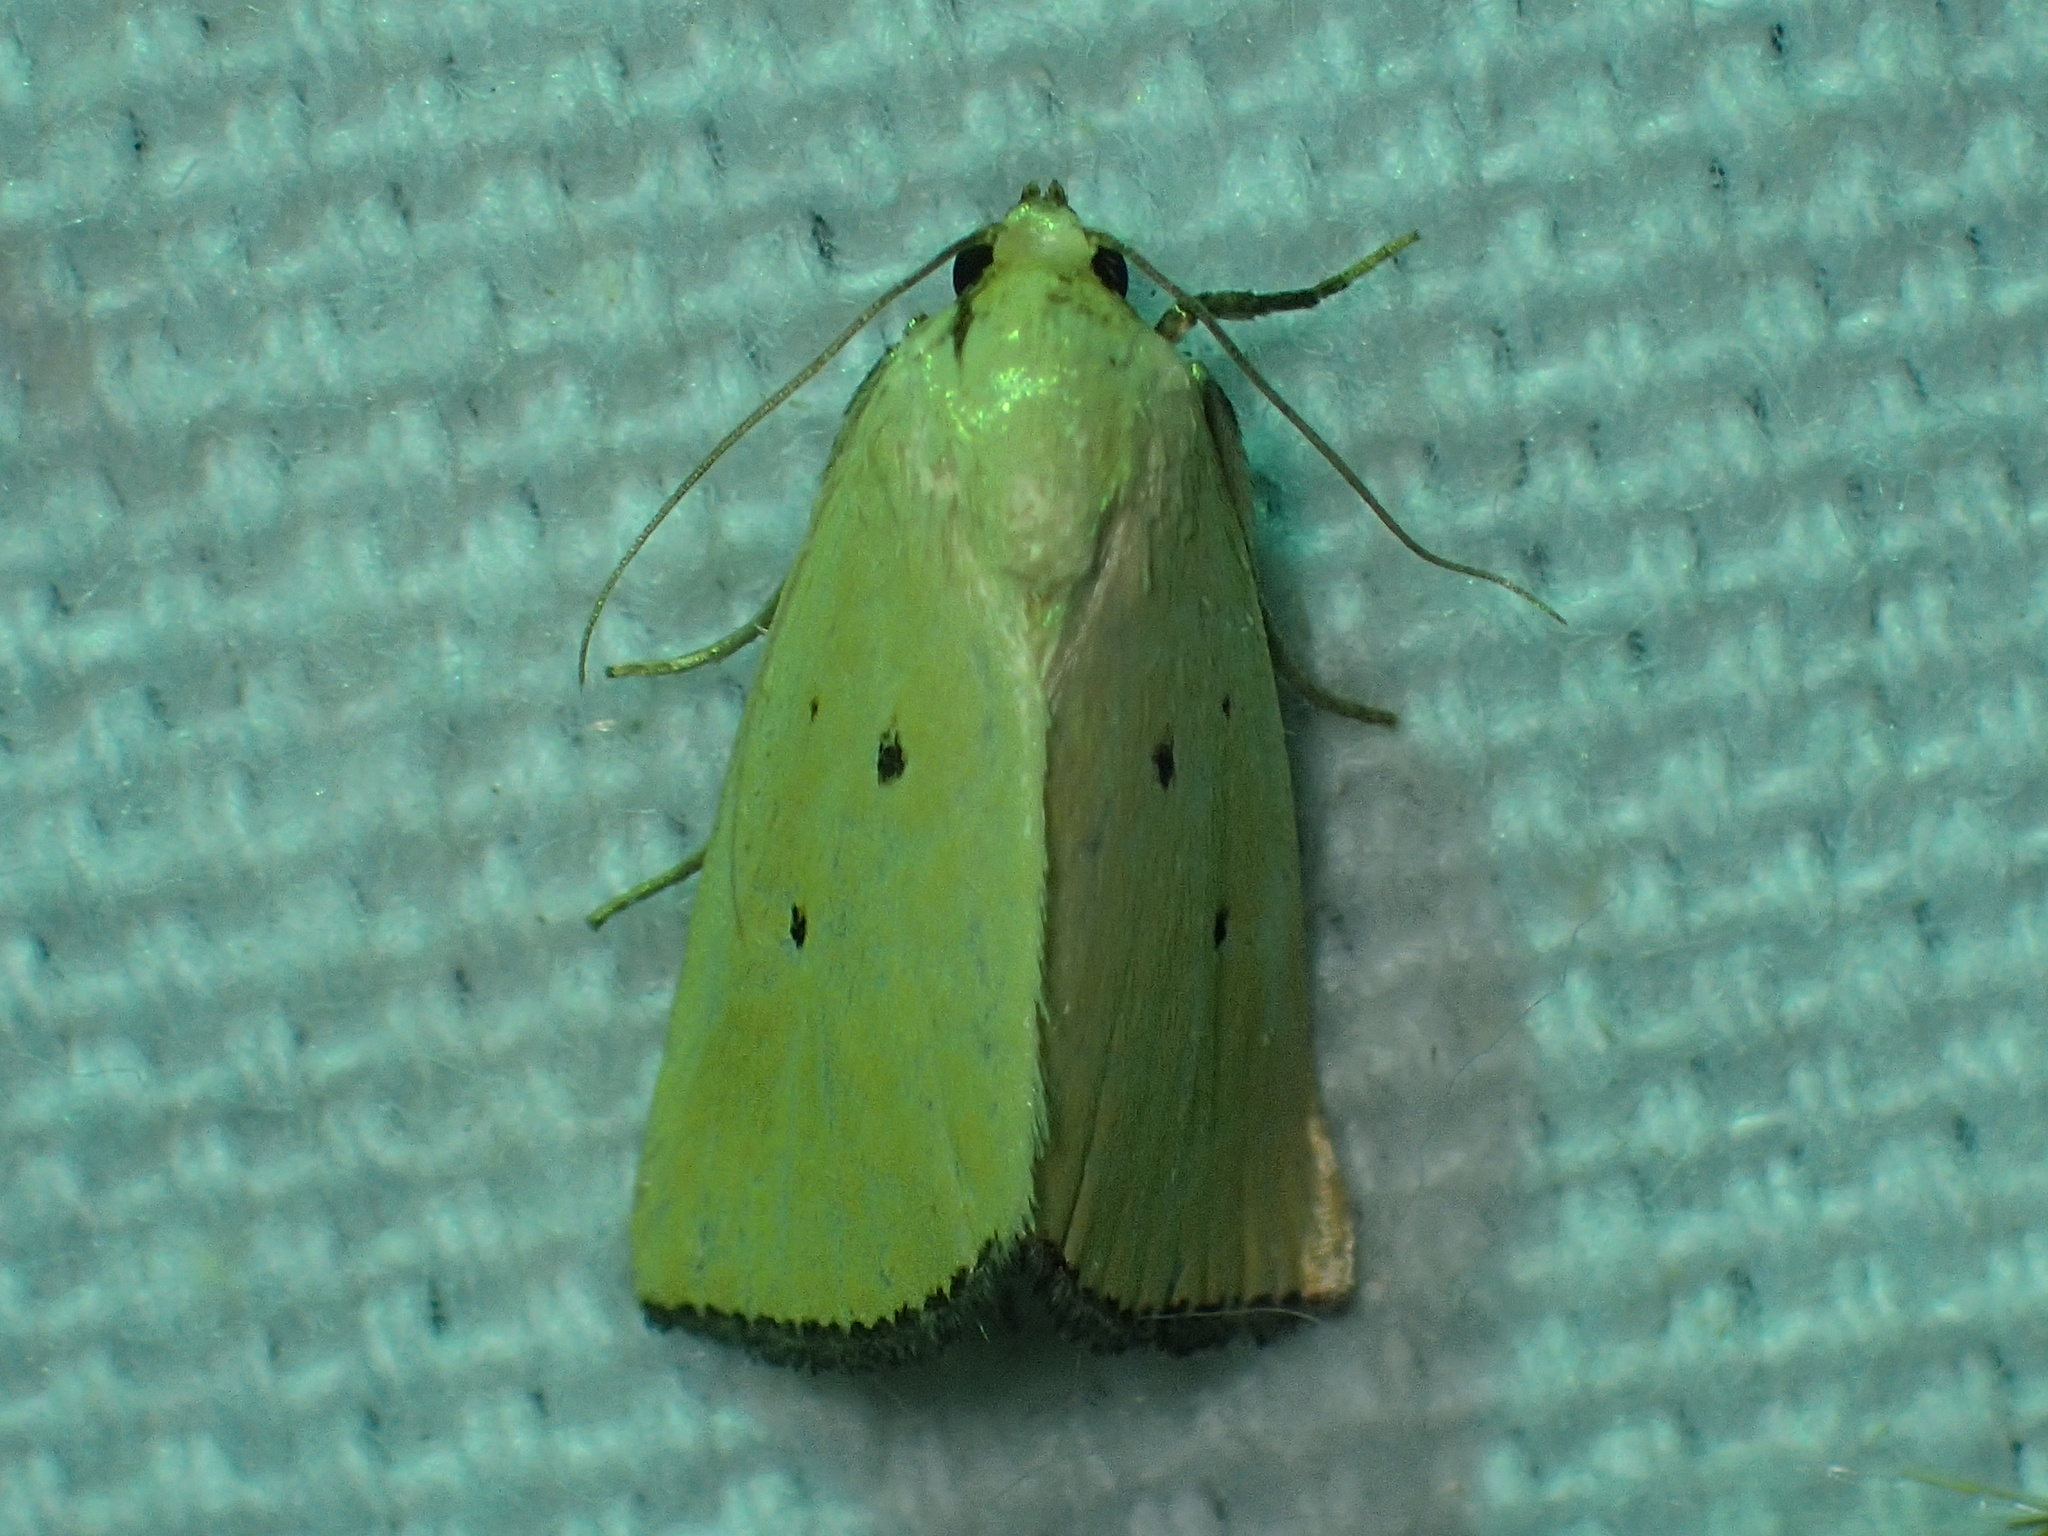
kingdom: Animalia
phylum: Arthropoda
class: Insecta
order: Lepidoptera
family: Noctuidae
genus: Marimatha
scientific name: Marimatha nigrofimbria
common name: Black-bordered lemon moth
